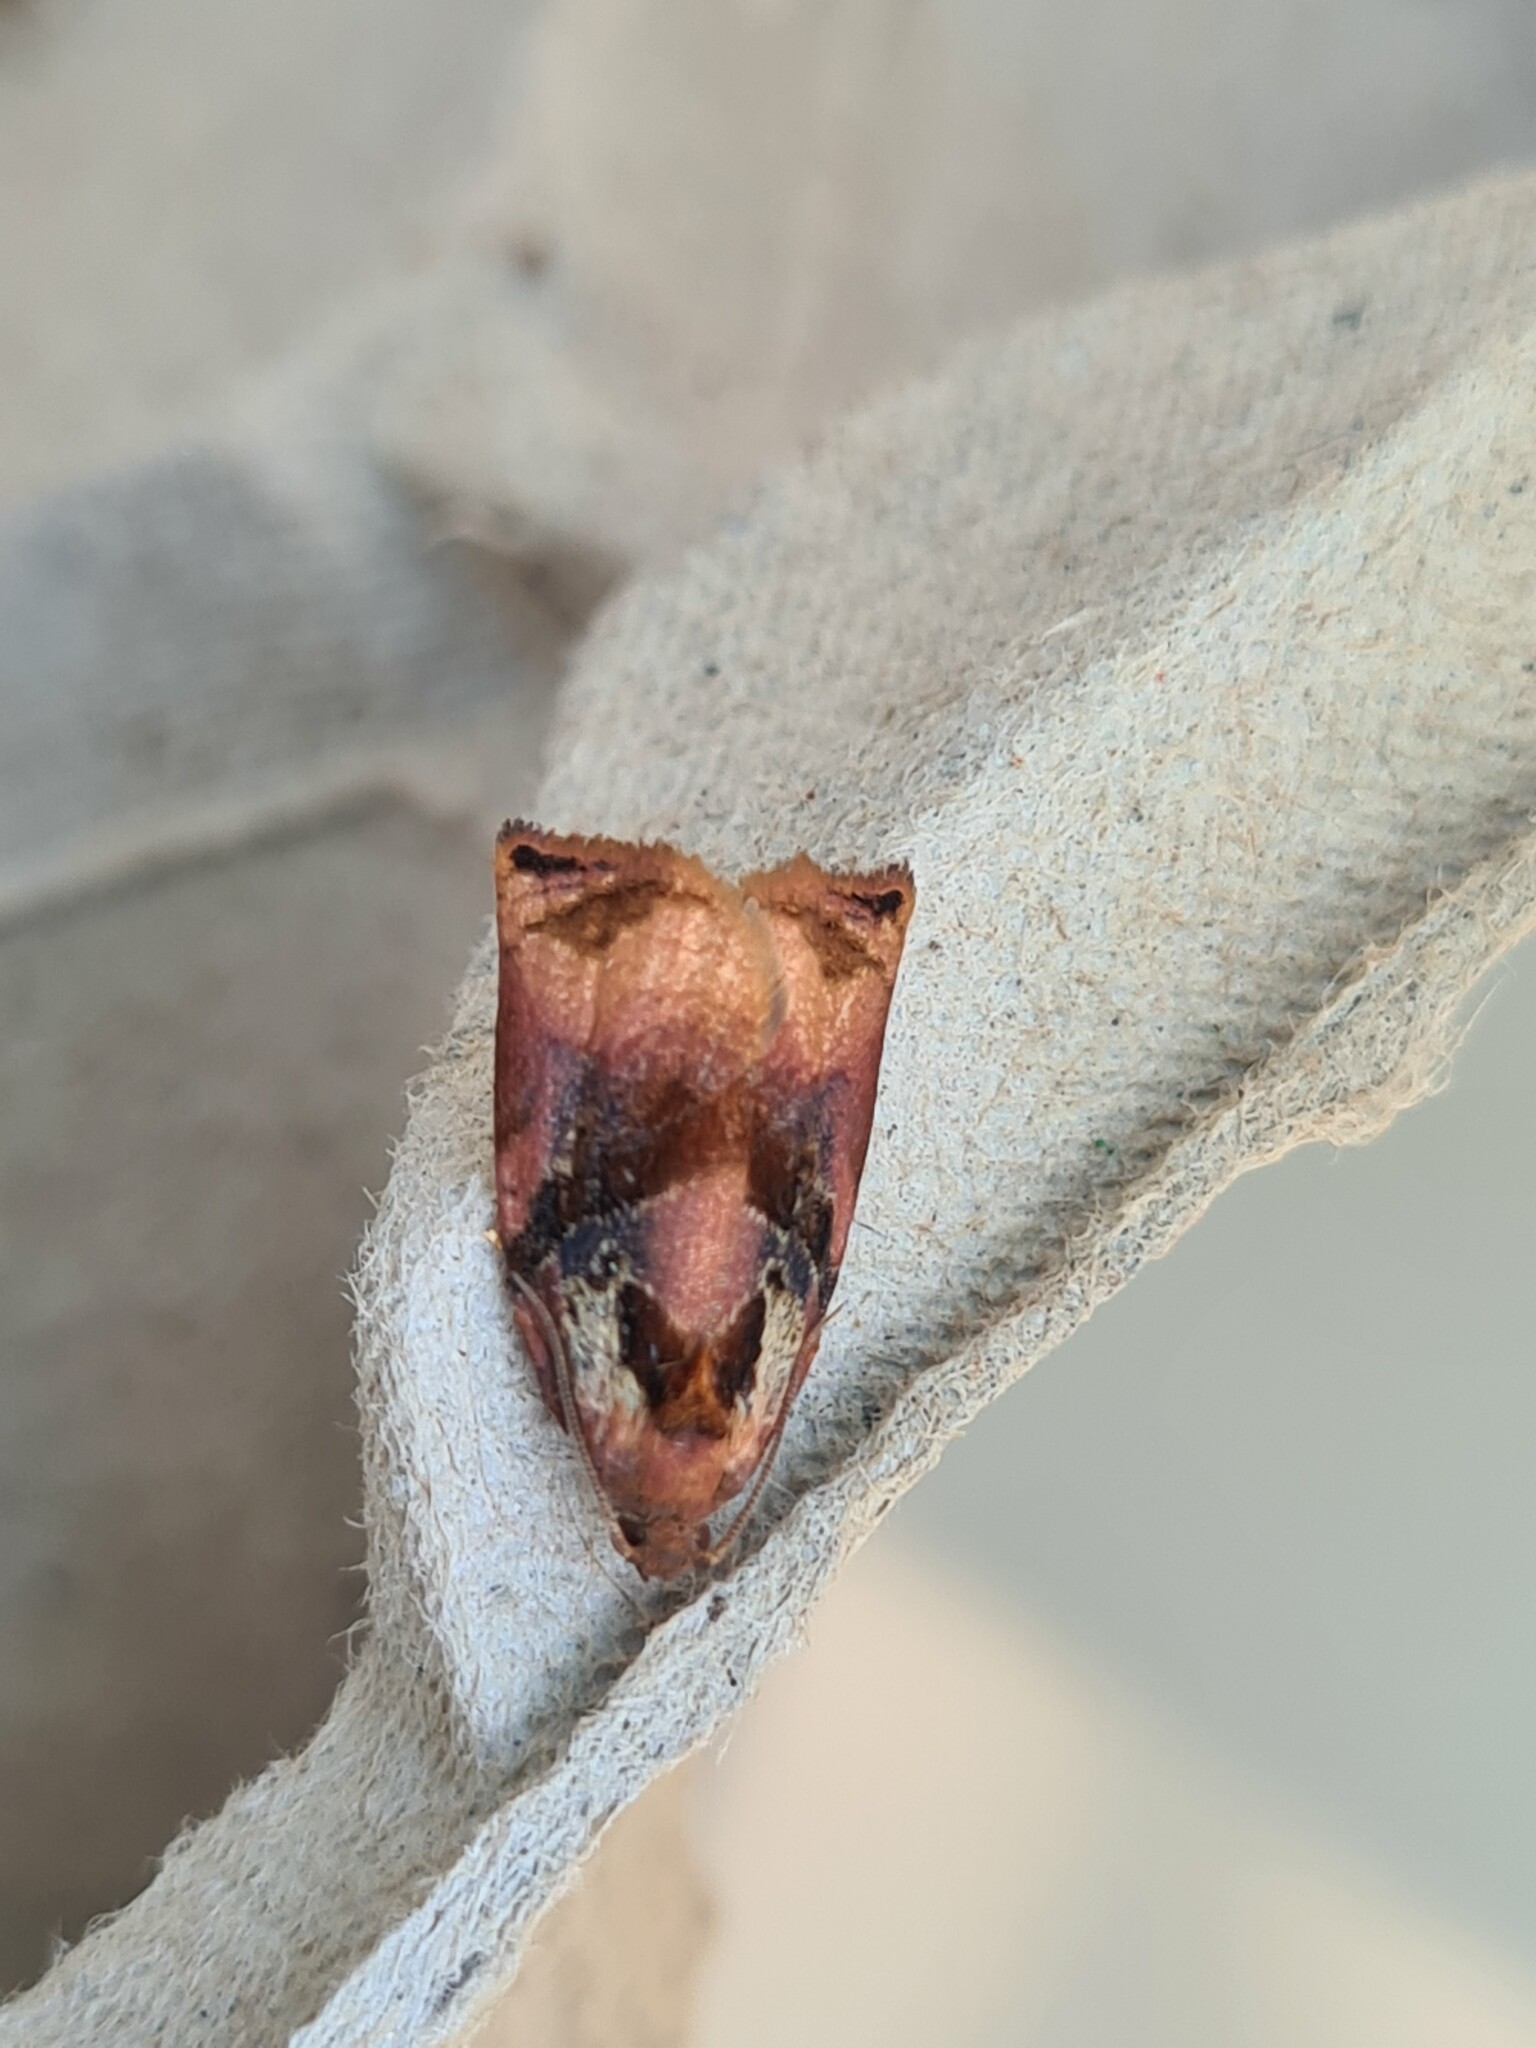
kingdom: Animalia
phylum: Arthropoda
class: Insecta
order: Lepidoptera
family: Tortricidae
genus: Archips
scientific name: Archips podana
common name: Large fruit-tree tortrix
